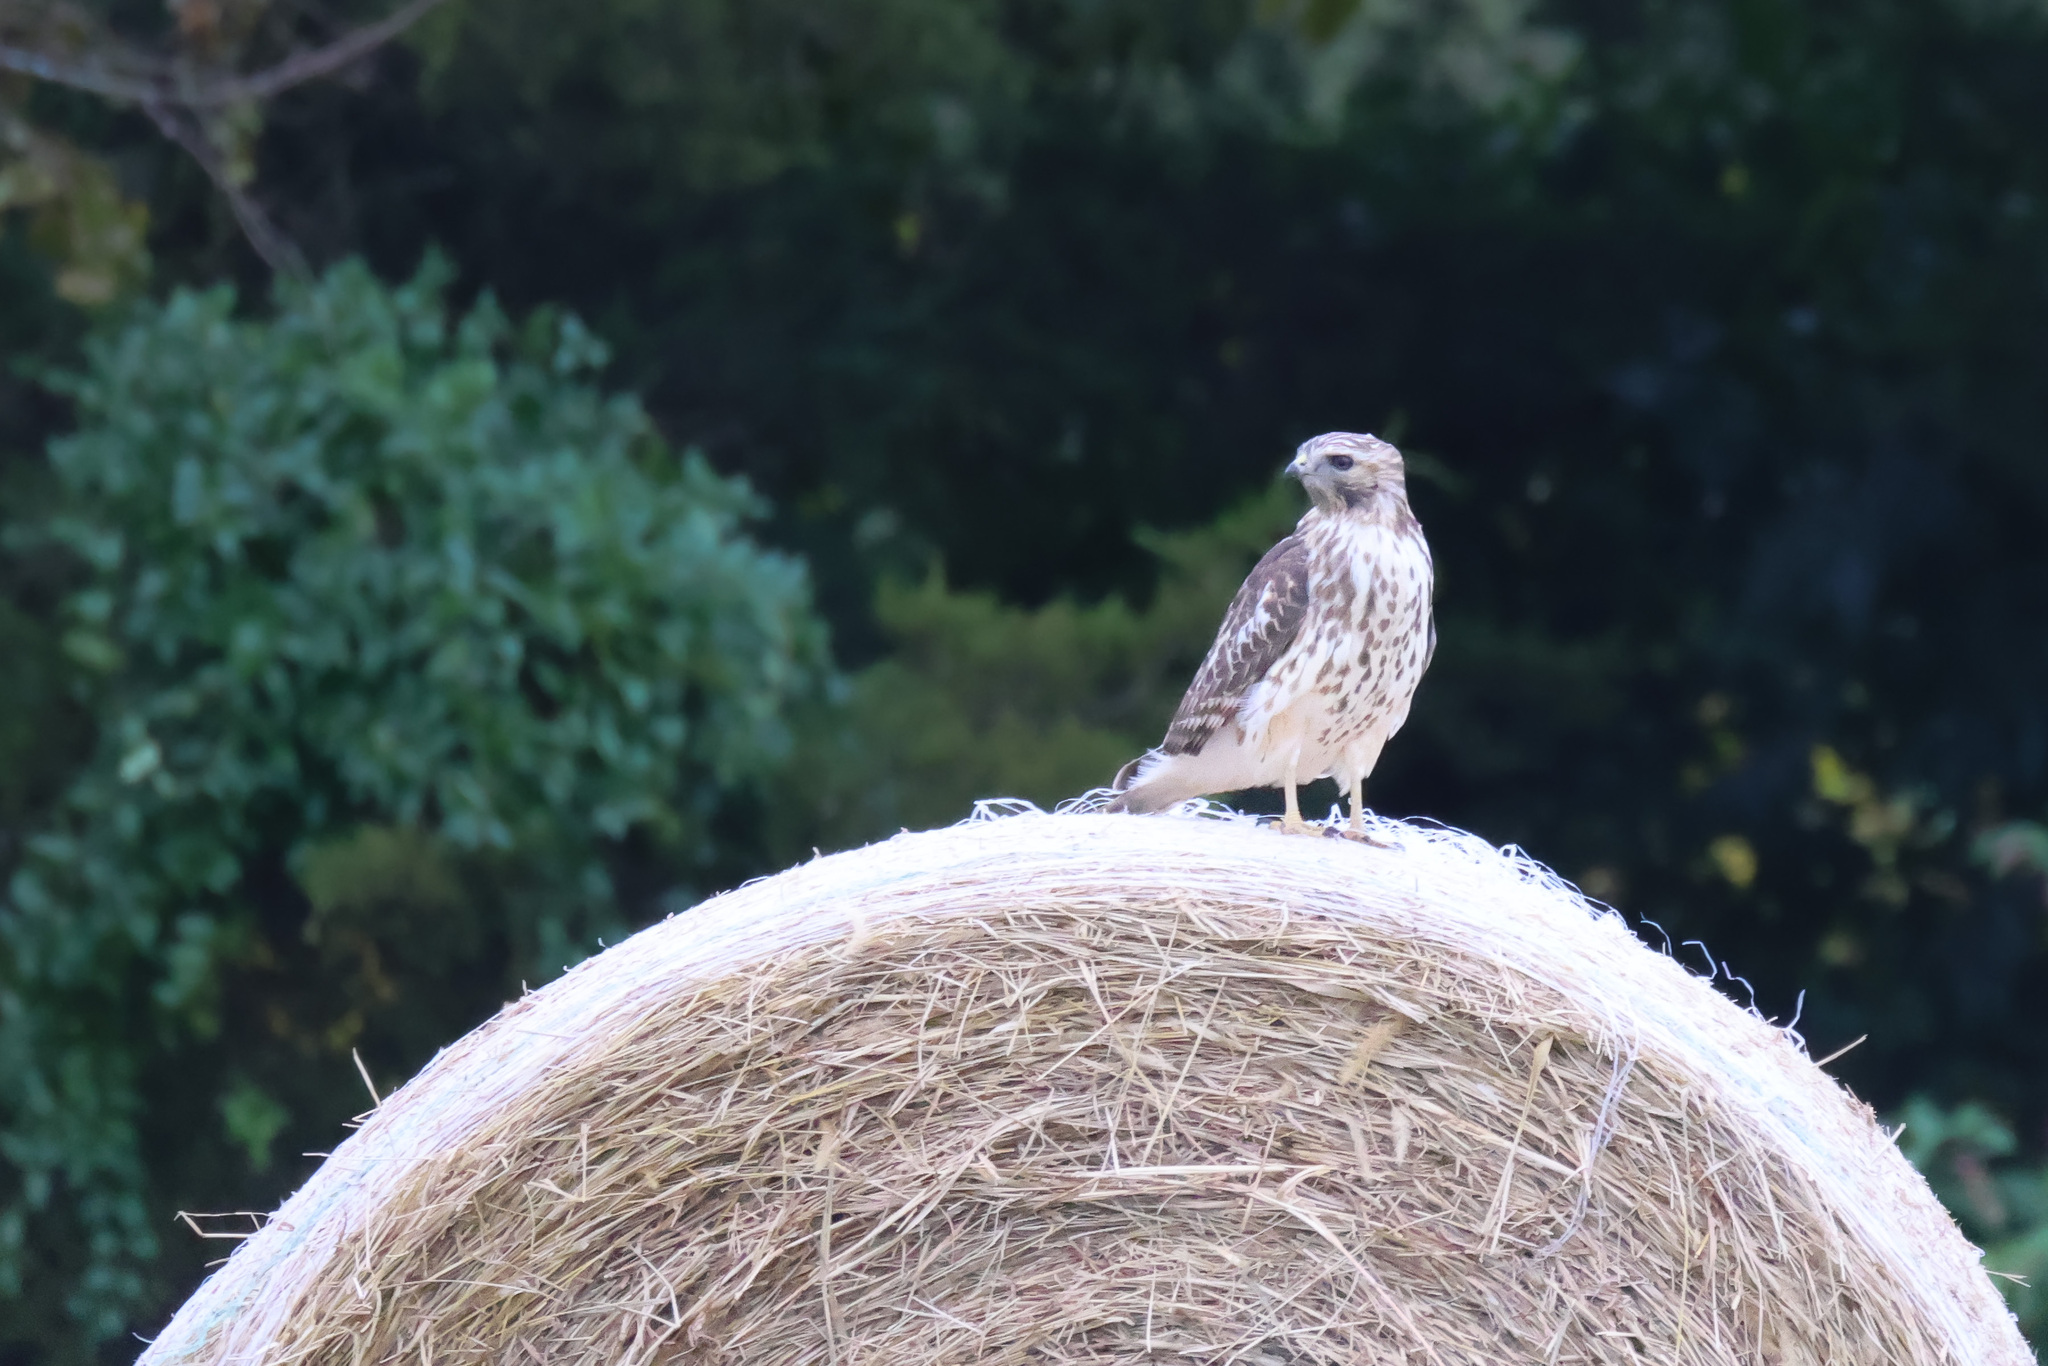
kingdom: Animalia
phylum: Chordata
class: Aves
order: Accipitriformes
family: Accipitridae
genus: Buteo
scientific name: Buteo lineatus
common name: Red-shouldered hawk
